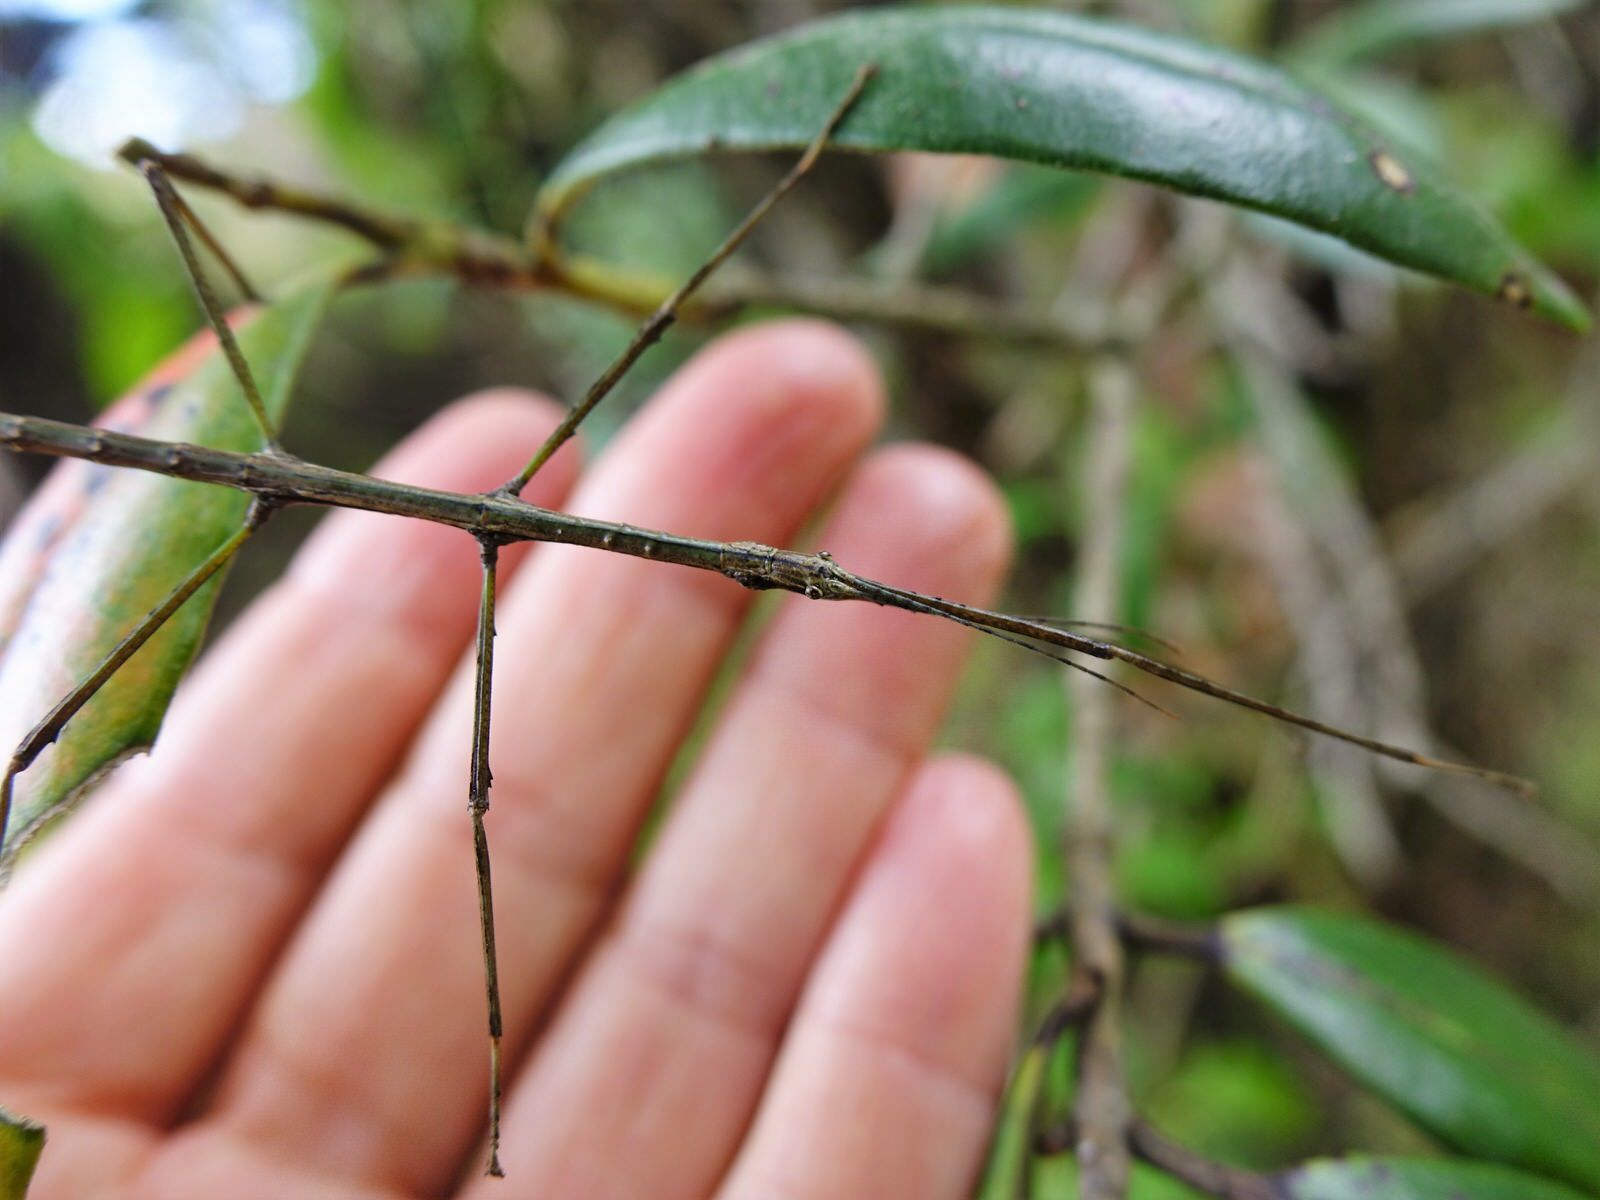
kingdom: Animalia
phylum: Arthropoda
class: Insecta
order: Phasmida
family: Phasmatidae
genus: Clitarchus
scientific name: Clitarchus hookeri
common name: Smooth stick insect
